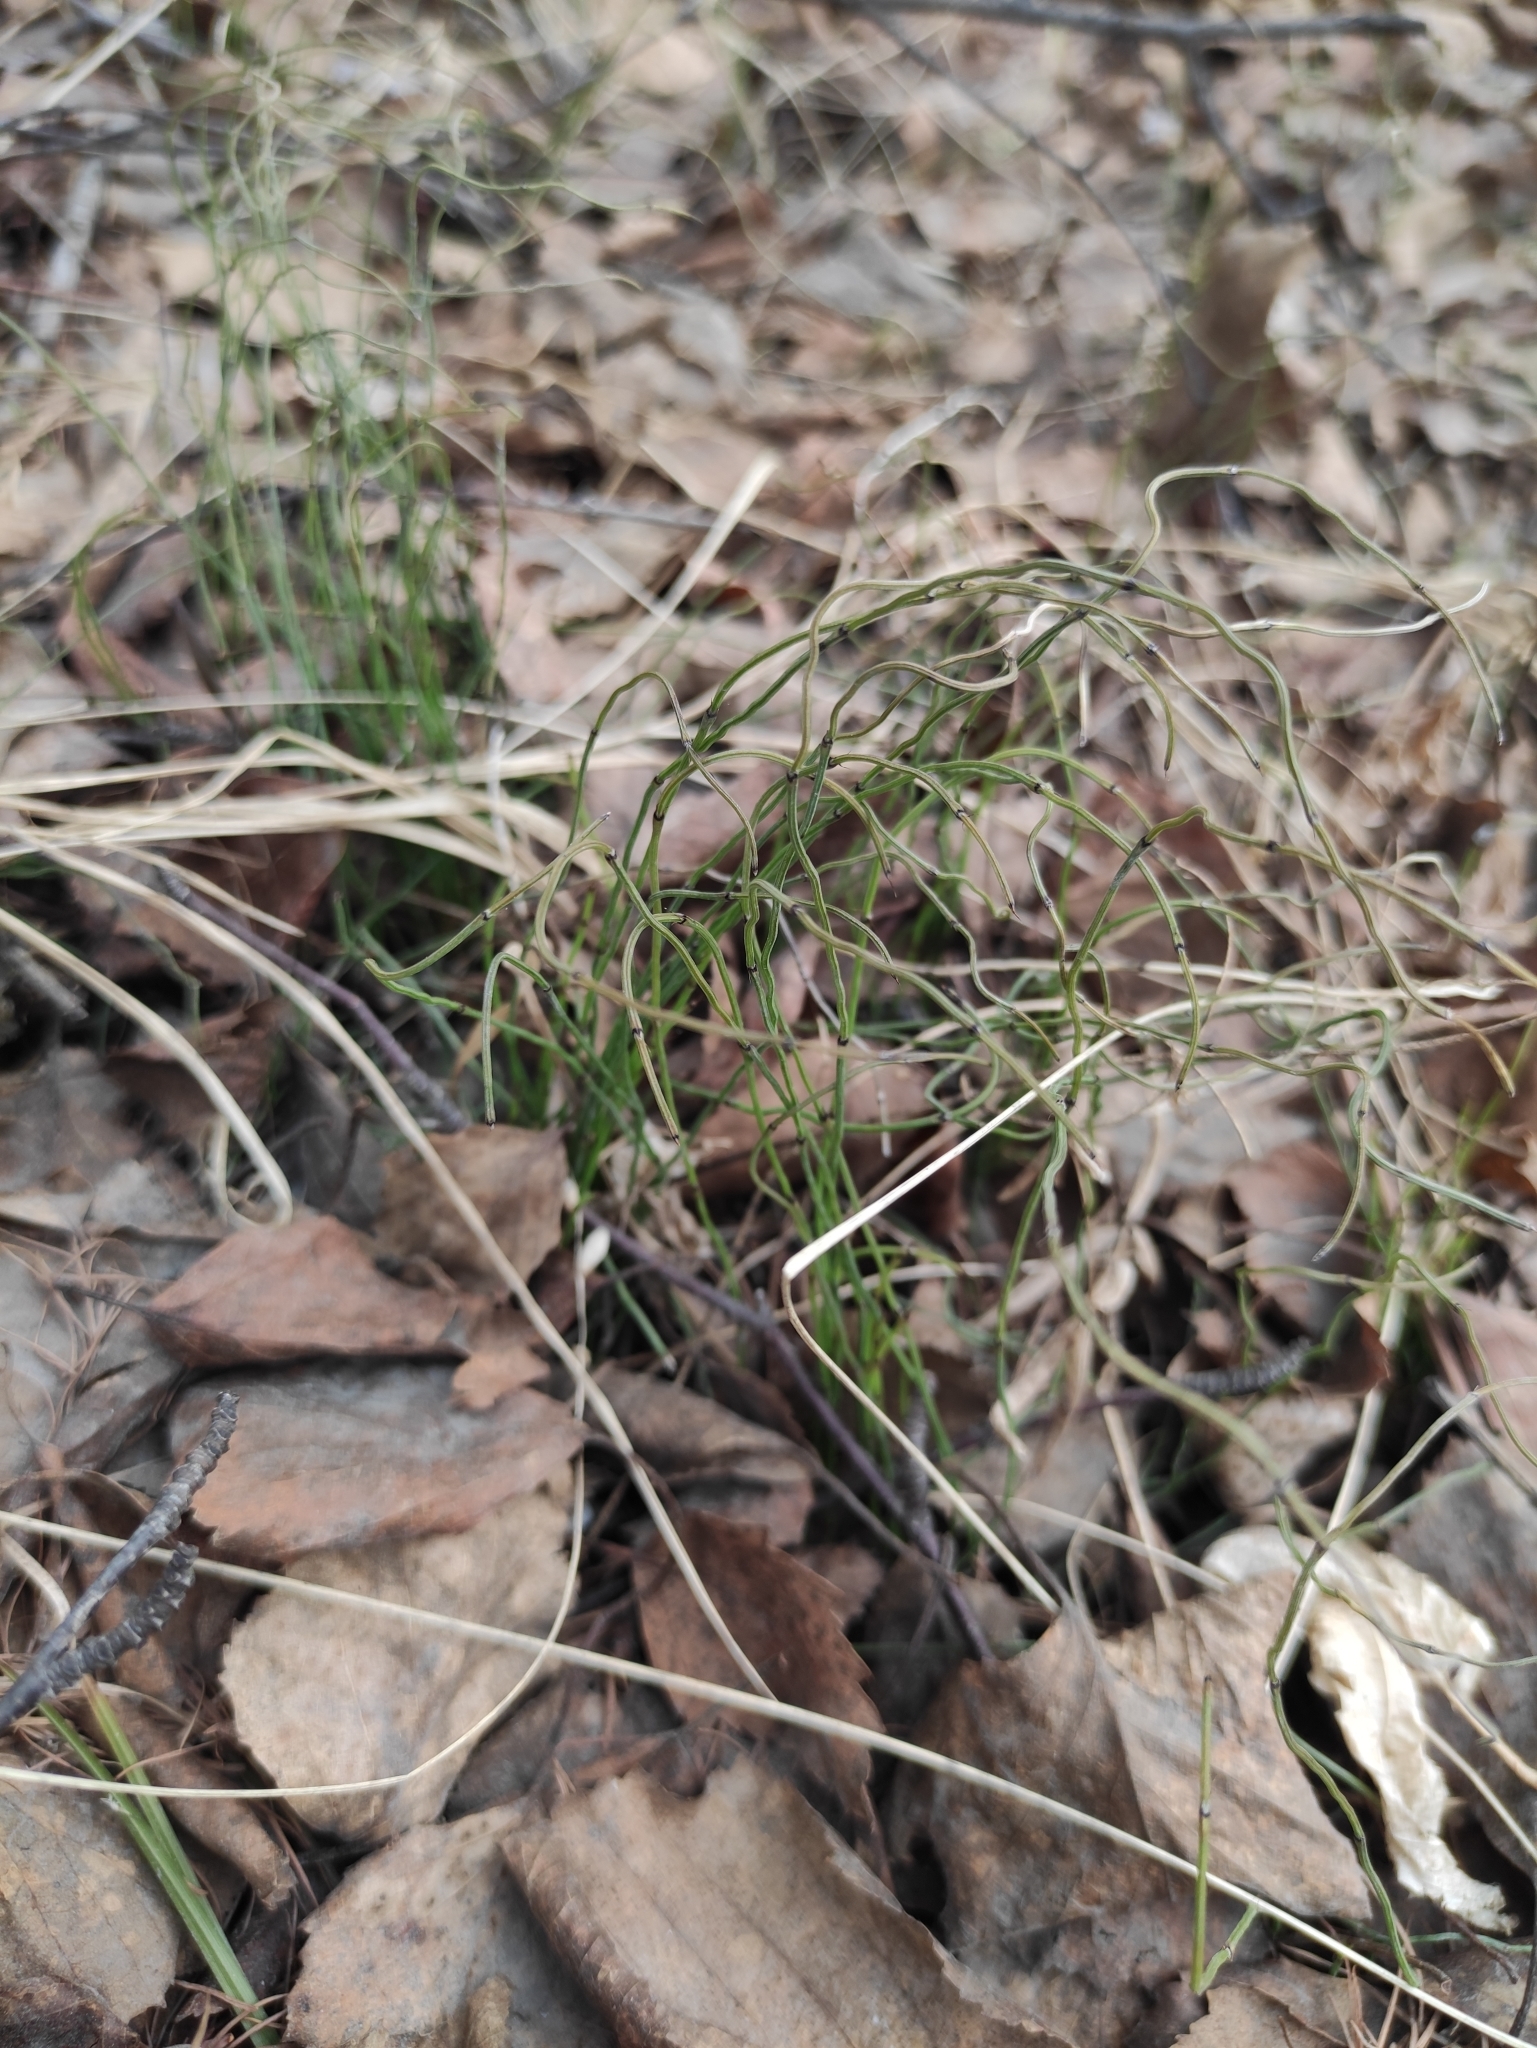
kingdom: Plantae
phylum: Tracheophyta
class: Polypodiopsida
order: Equisetales
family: Equisetaceae
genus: Equisetum
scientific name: Equisetum scirpoides
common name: Delicate horsetail
